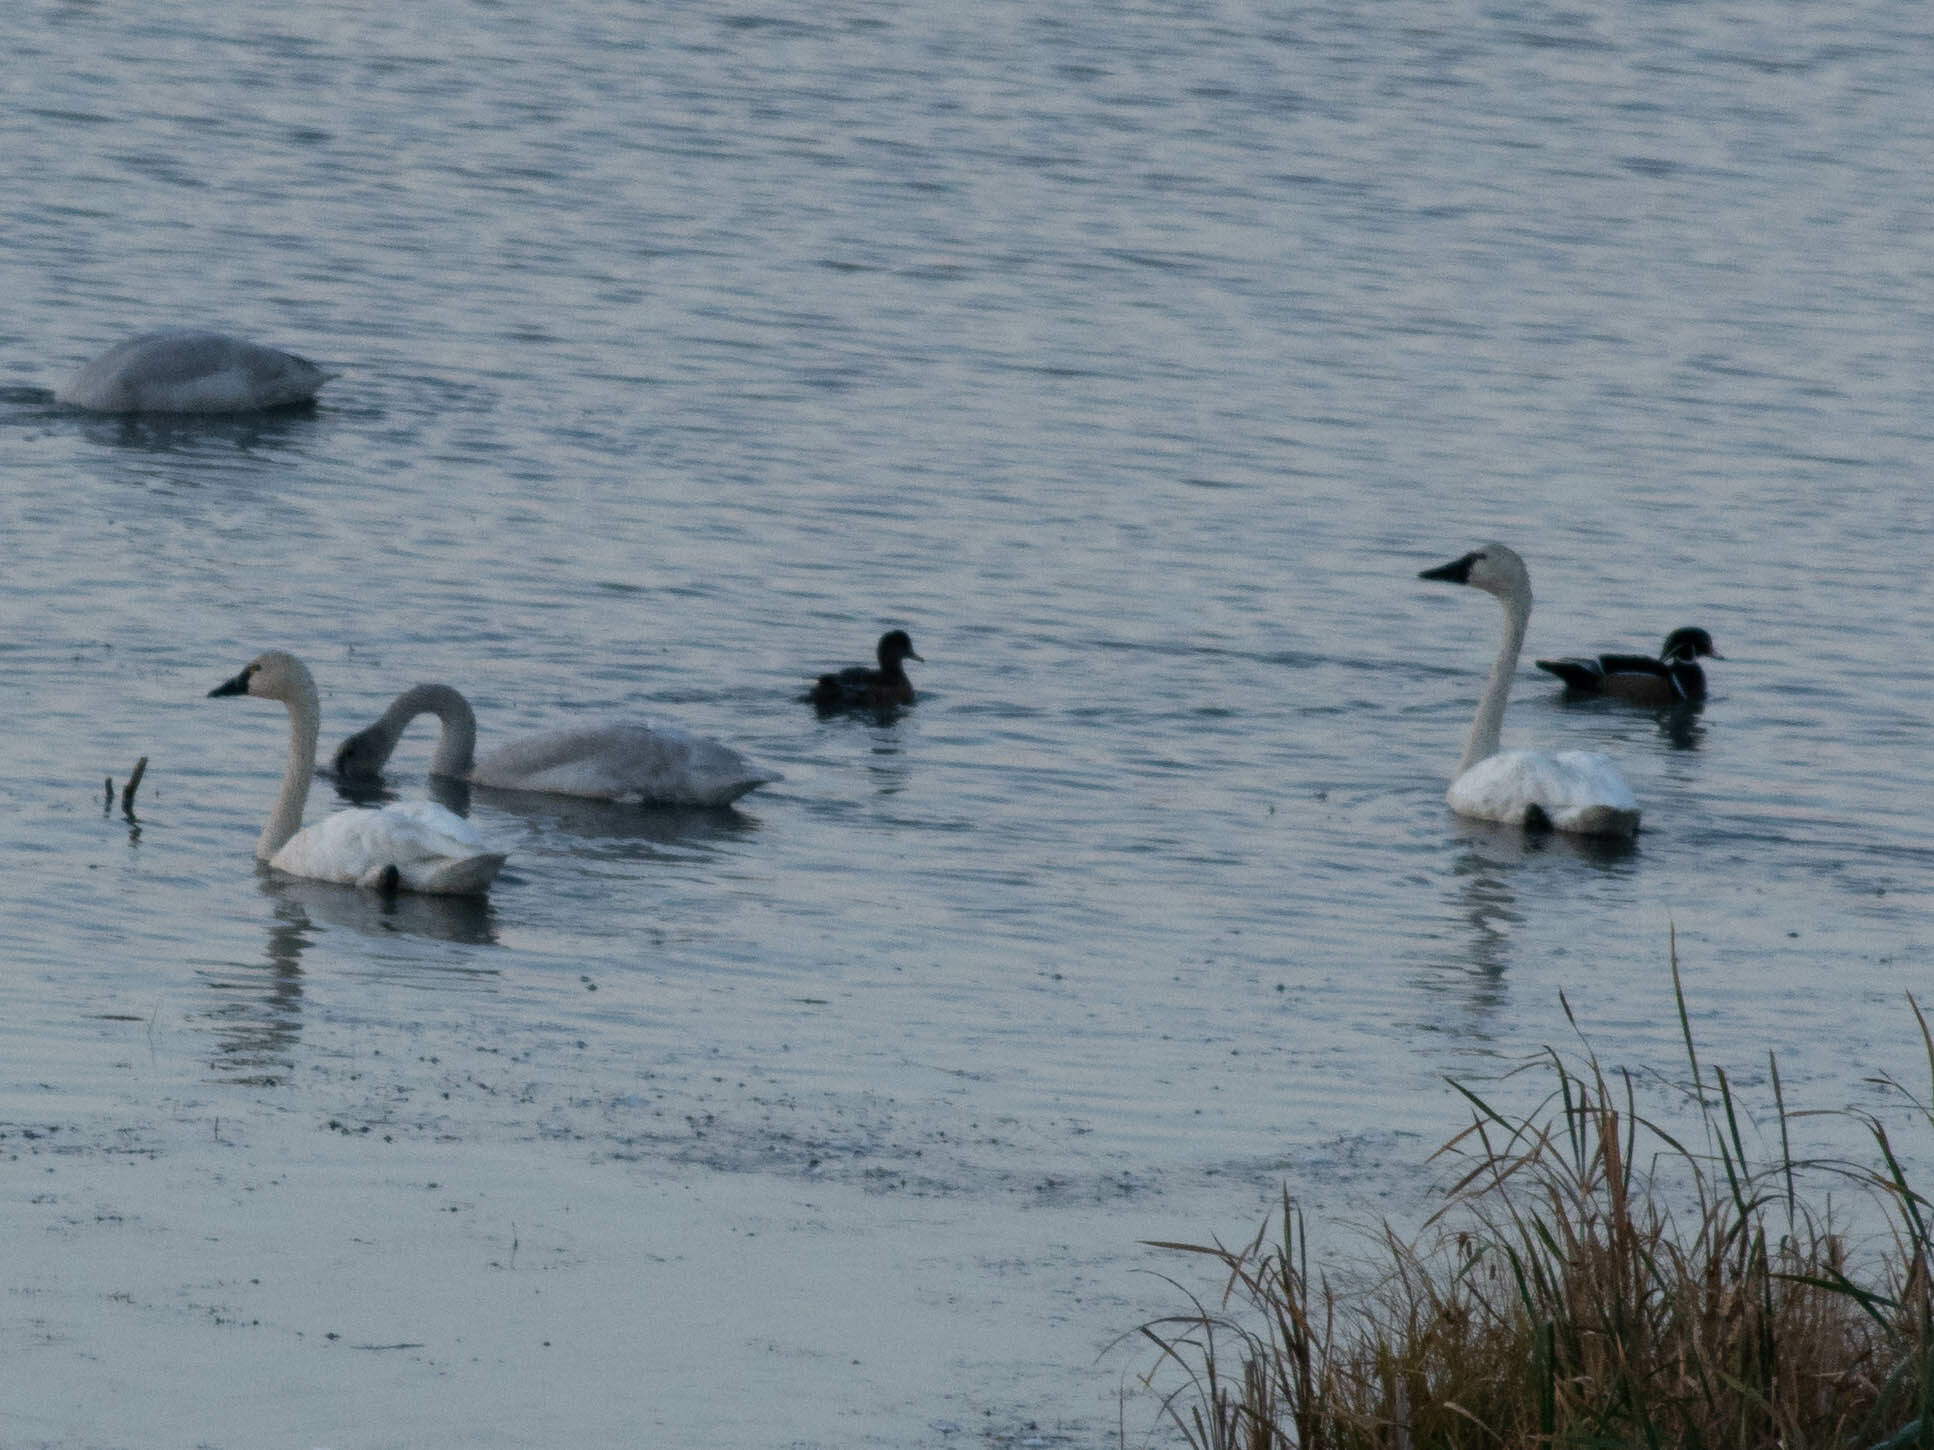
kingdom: Animalia
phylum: Chordata
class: Aves
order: Anseriformes
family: Anatidae
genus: Cygnus
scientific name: Cygnus columbianus
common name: Tundra swan
